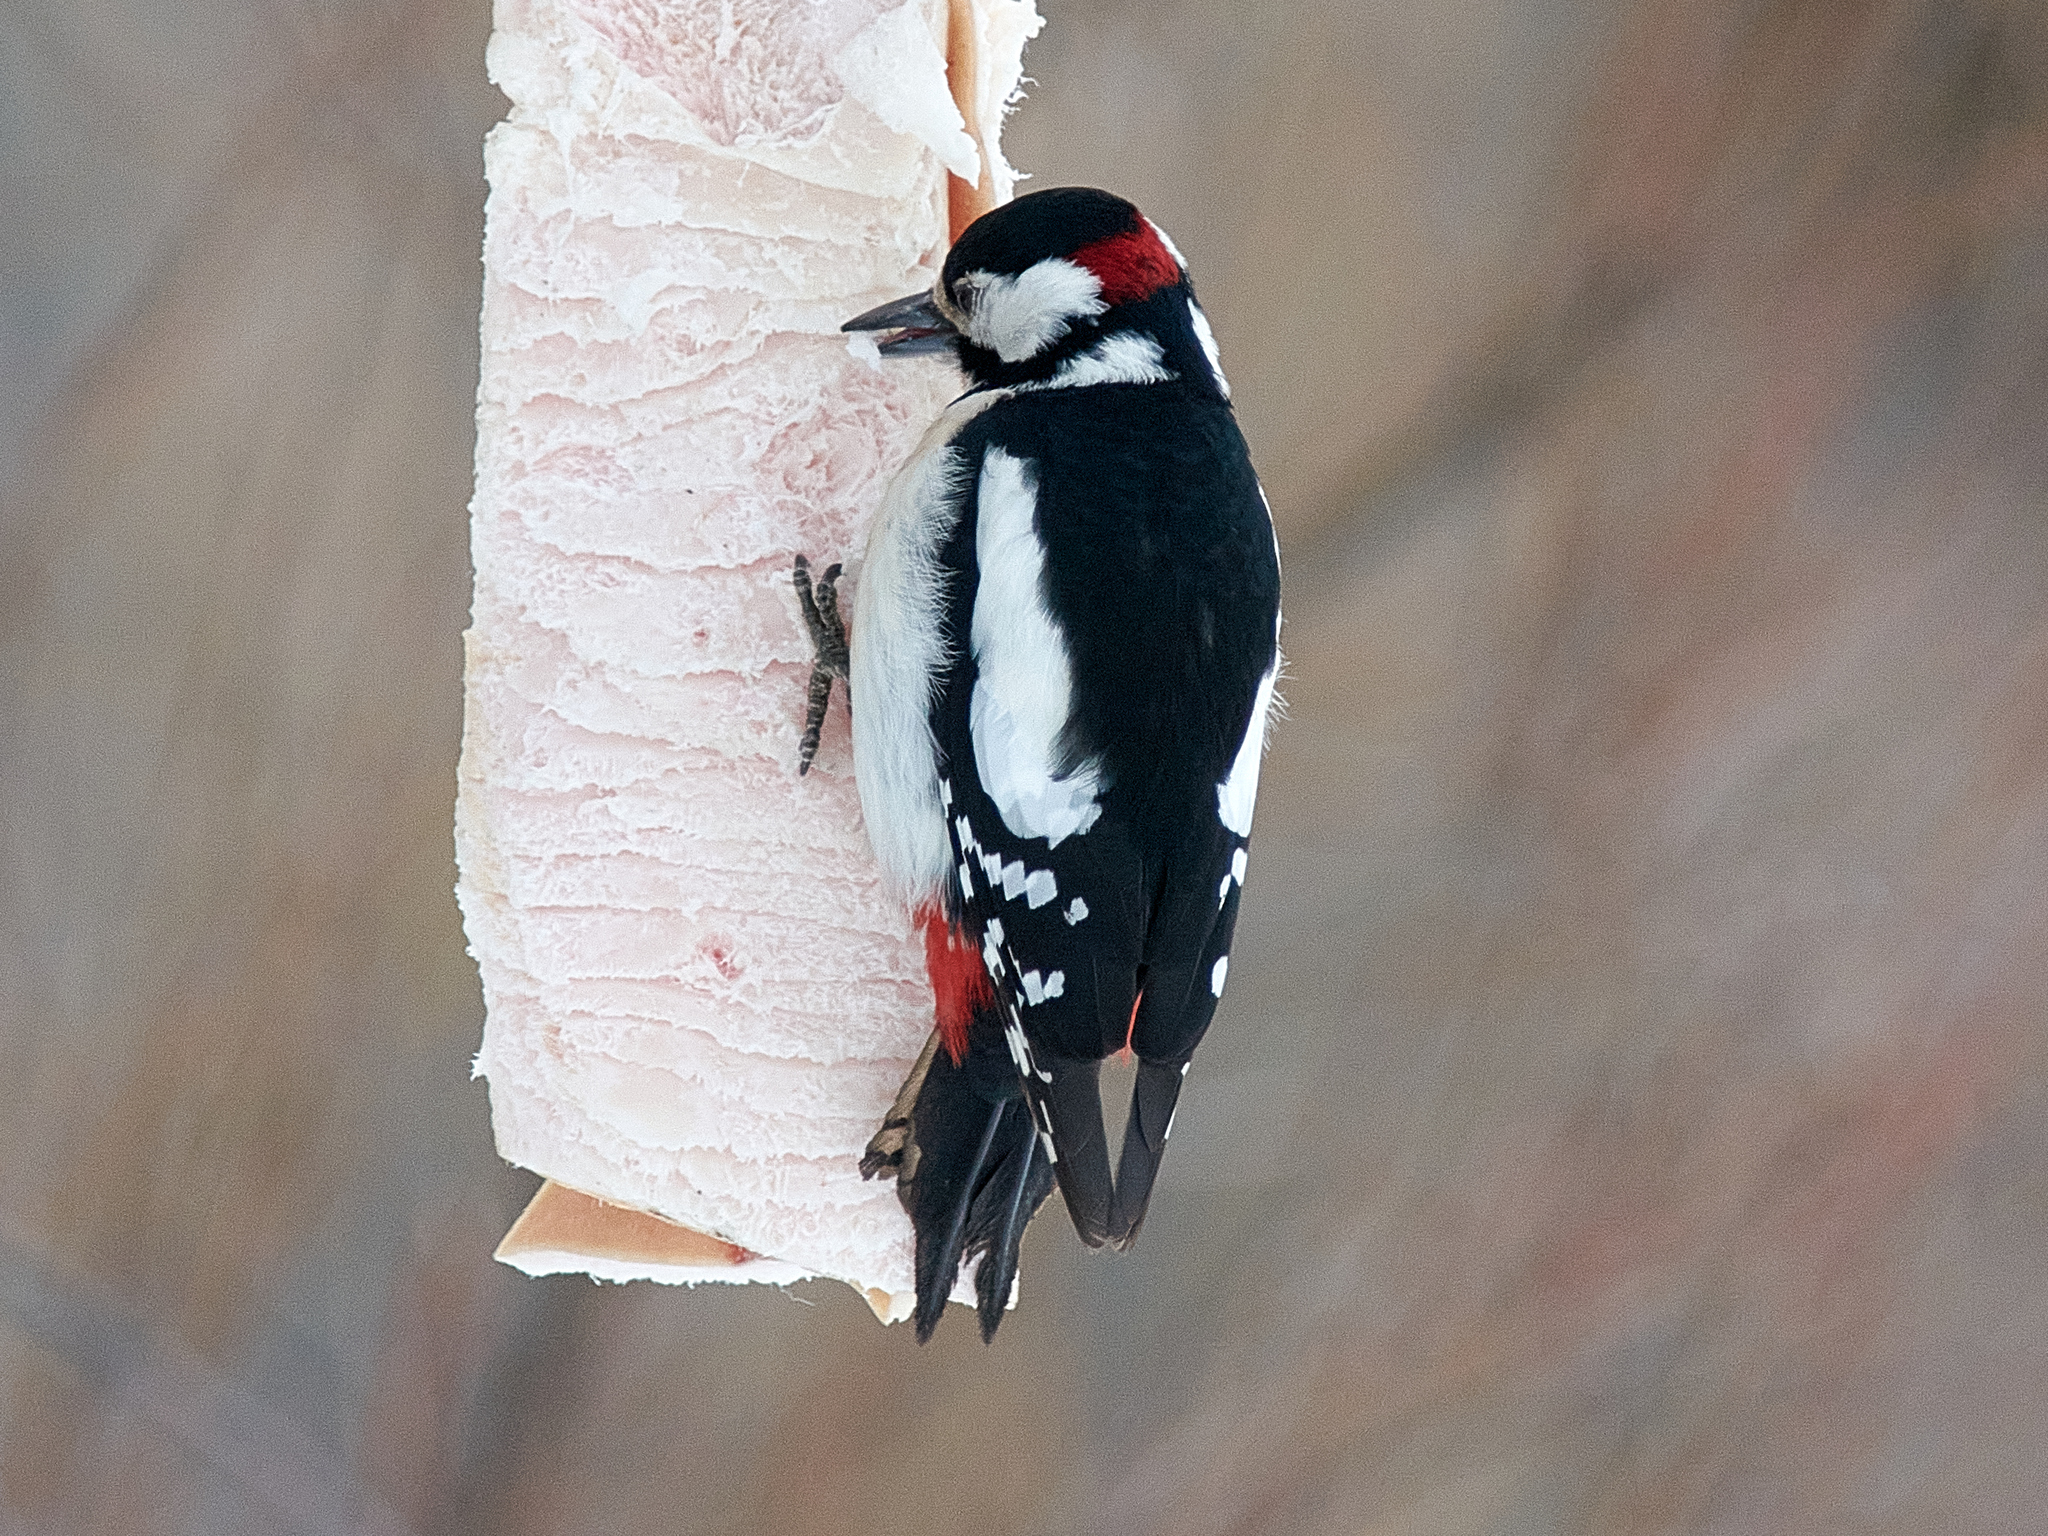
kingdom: Animalia
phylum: Chordata
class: Aves
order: Piciformes
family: Picidae
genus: Dendrocopos
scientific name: Dendrocopos major
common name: Great spotted woodpecker
